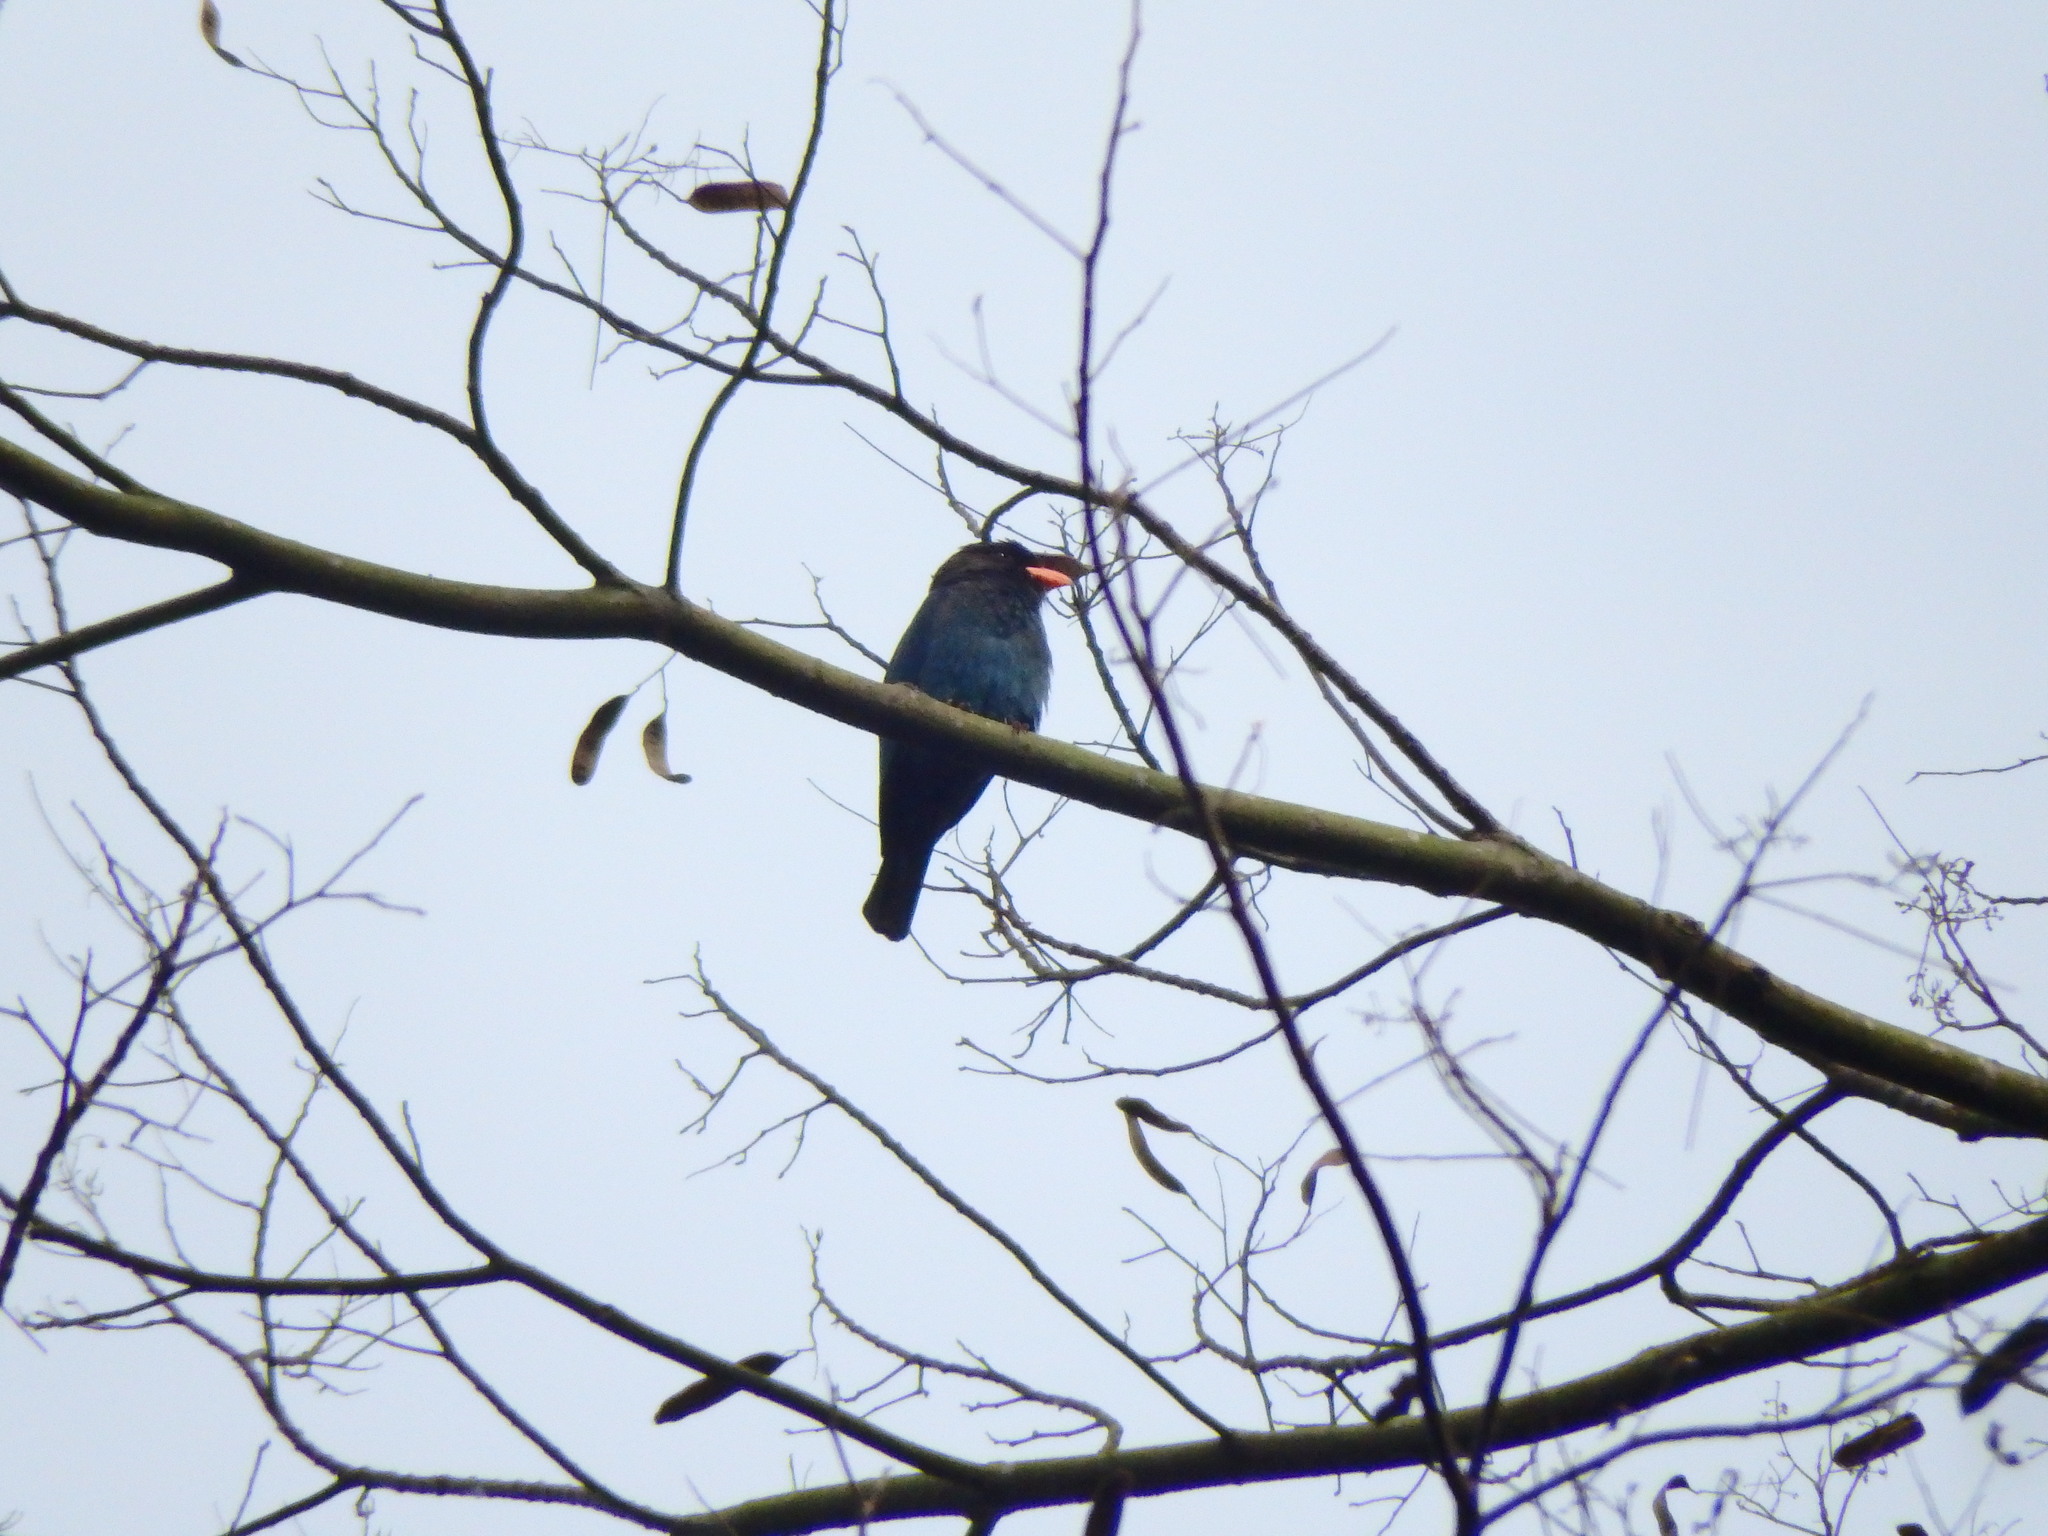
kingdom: Animalia
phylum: Chordata
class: Aves
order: Coraciiformes
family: Coraciidae
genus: Eurystomus
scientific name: Eurystomus orientalis
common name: Oriental dollarbird
